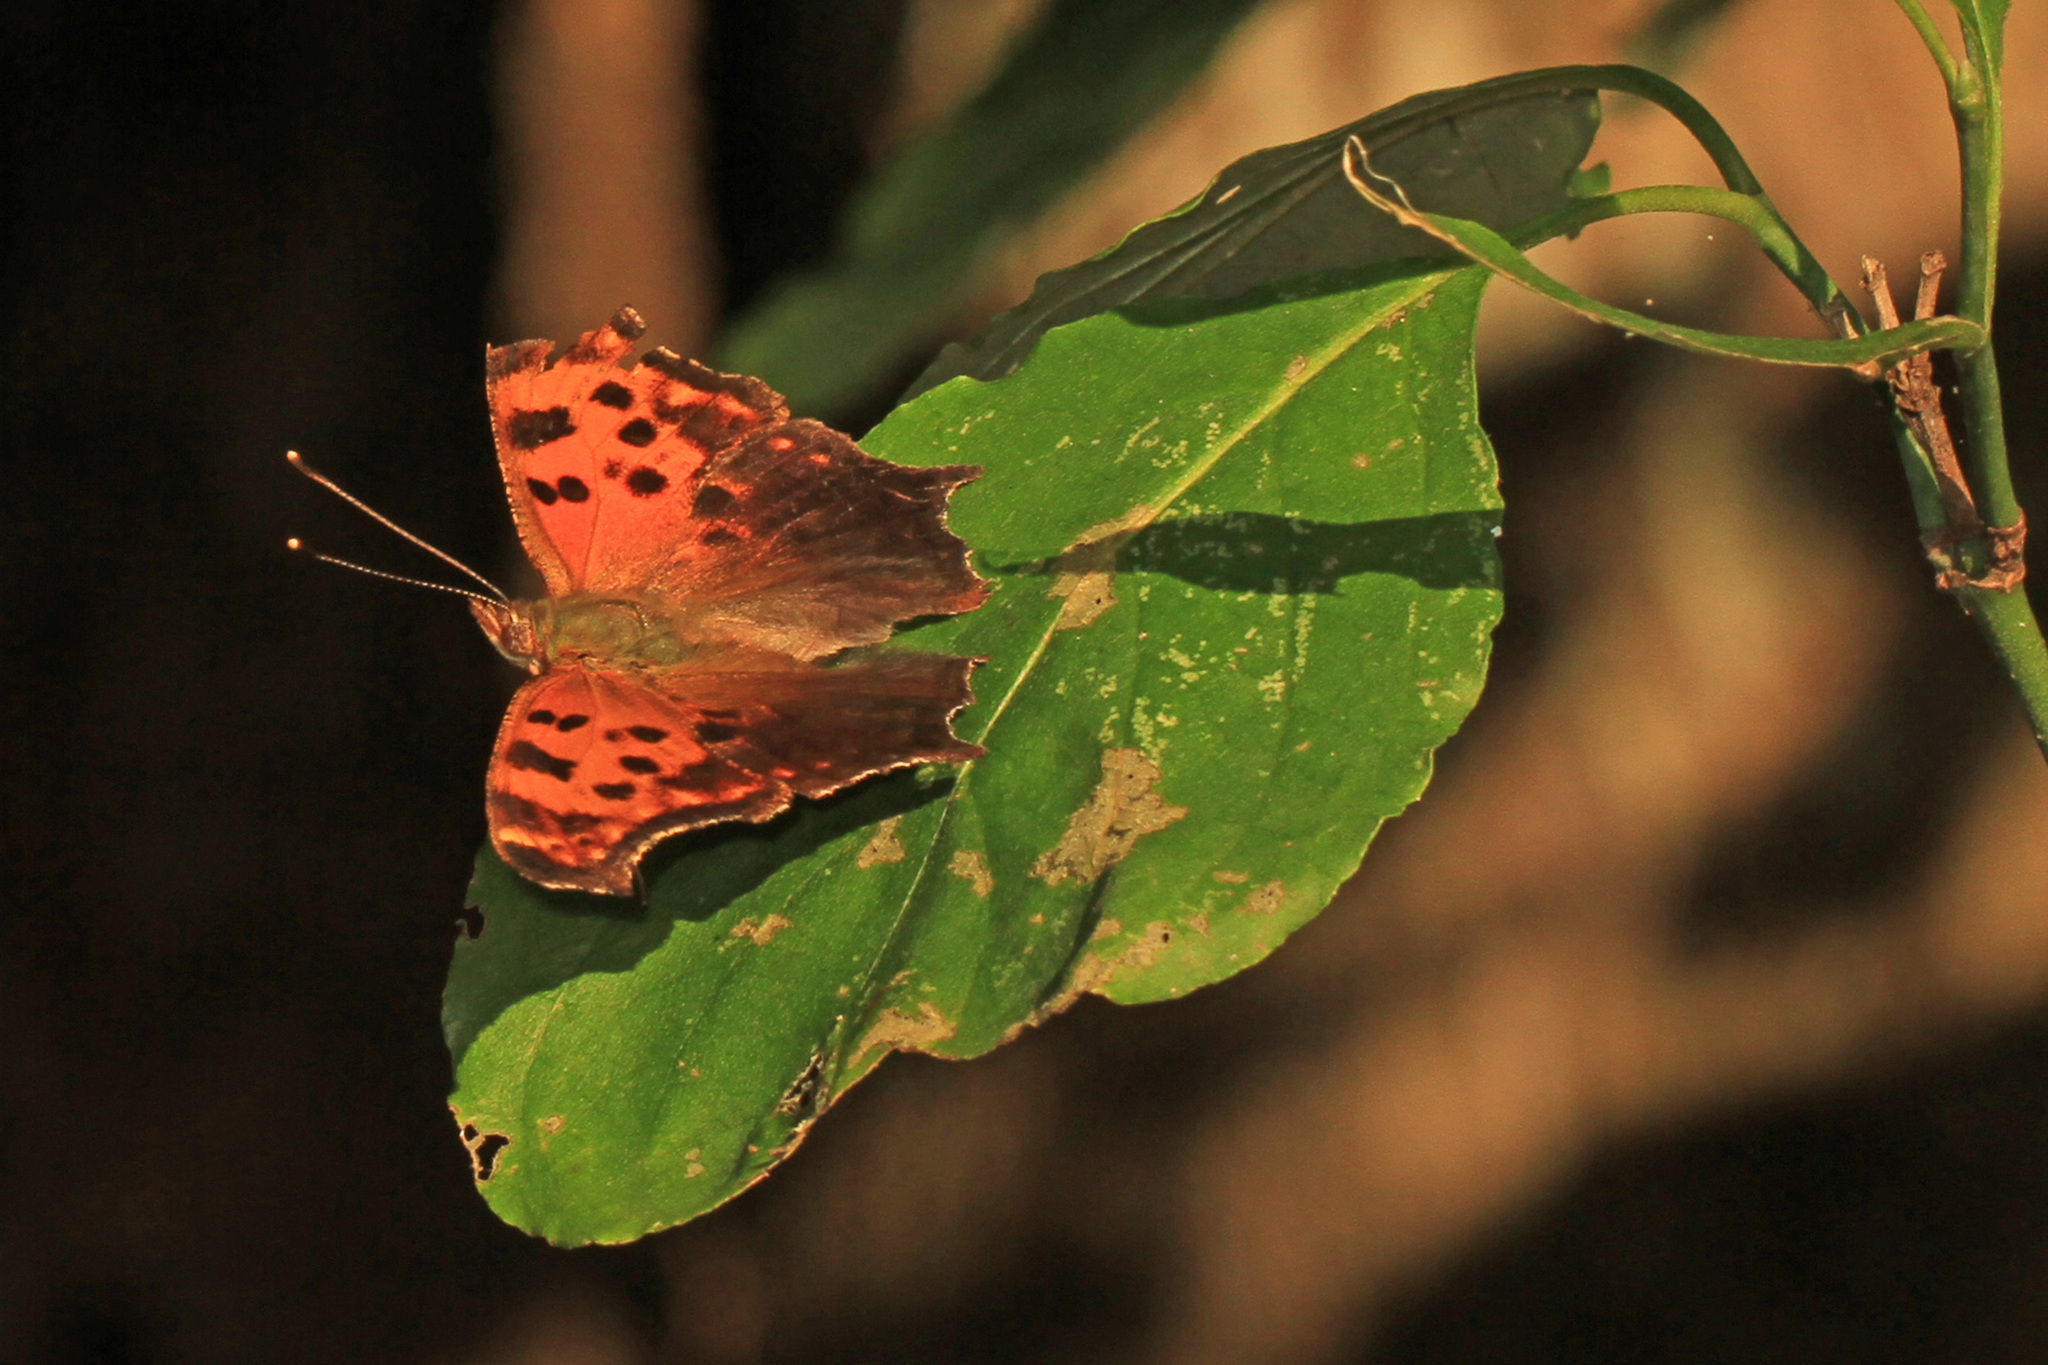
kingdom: Animalia
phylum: Arthropoda
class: Insecta
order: Lepidoptera
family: Nymphalidae
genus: Polygonia
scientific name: Polygonia comma
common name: Eastern comma
